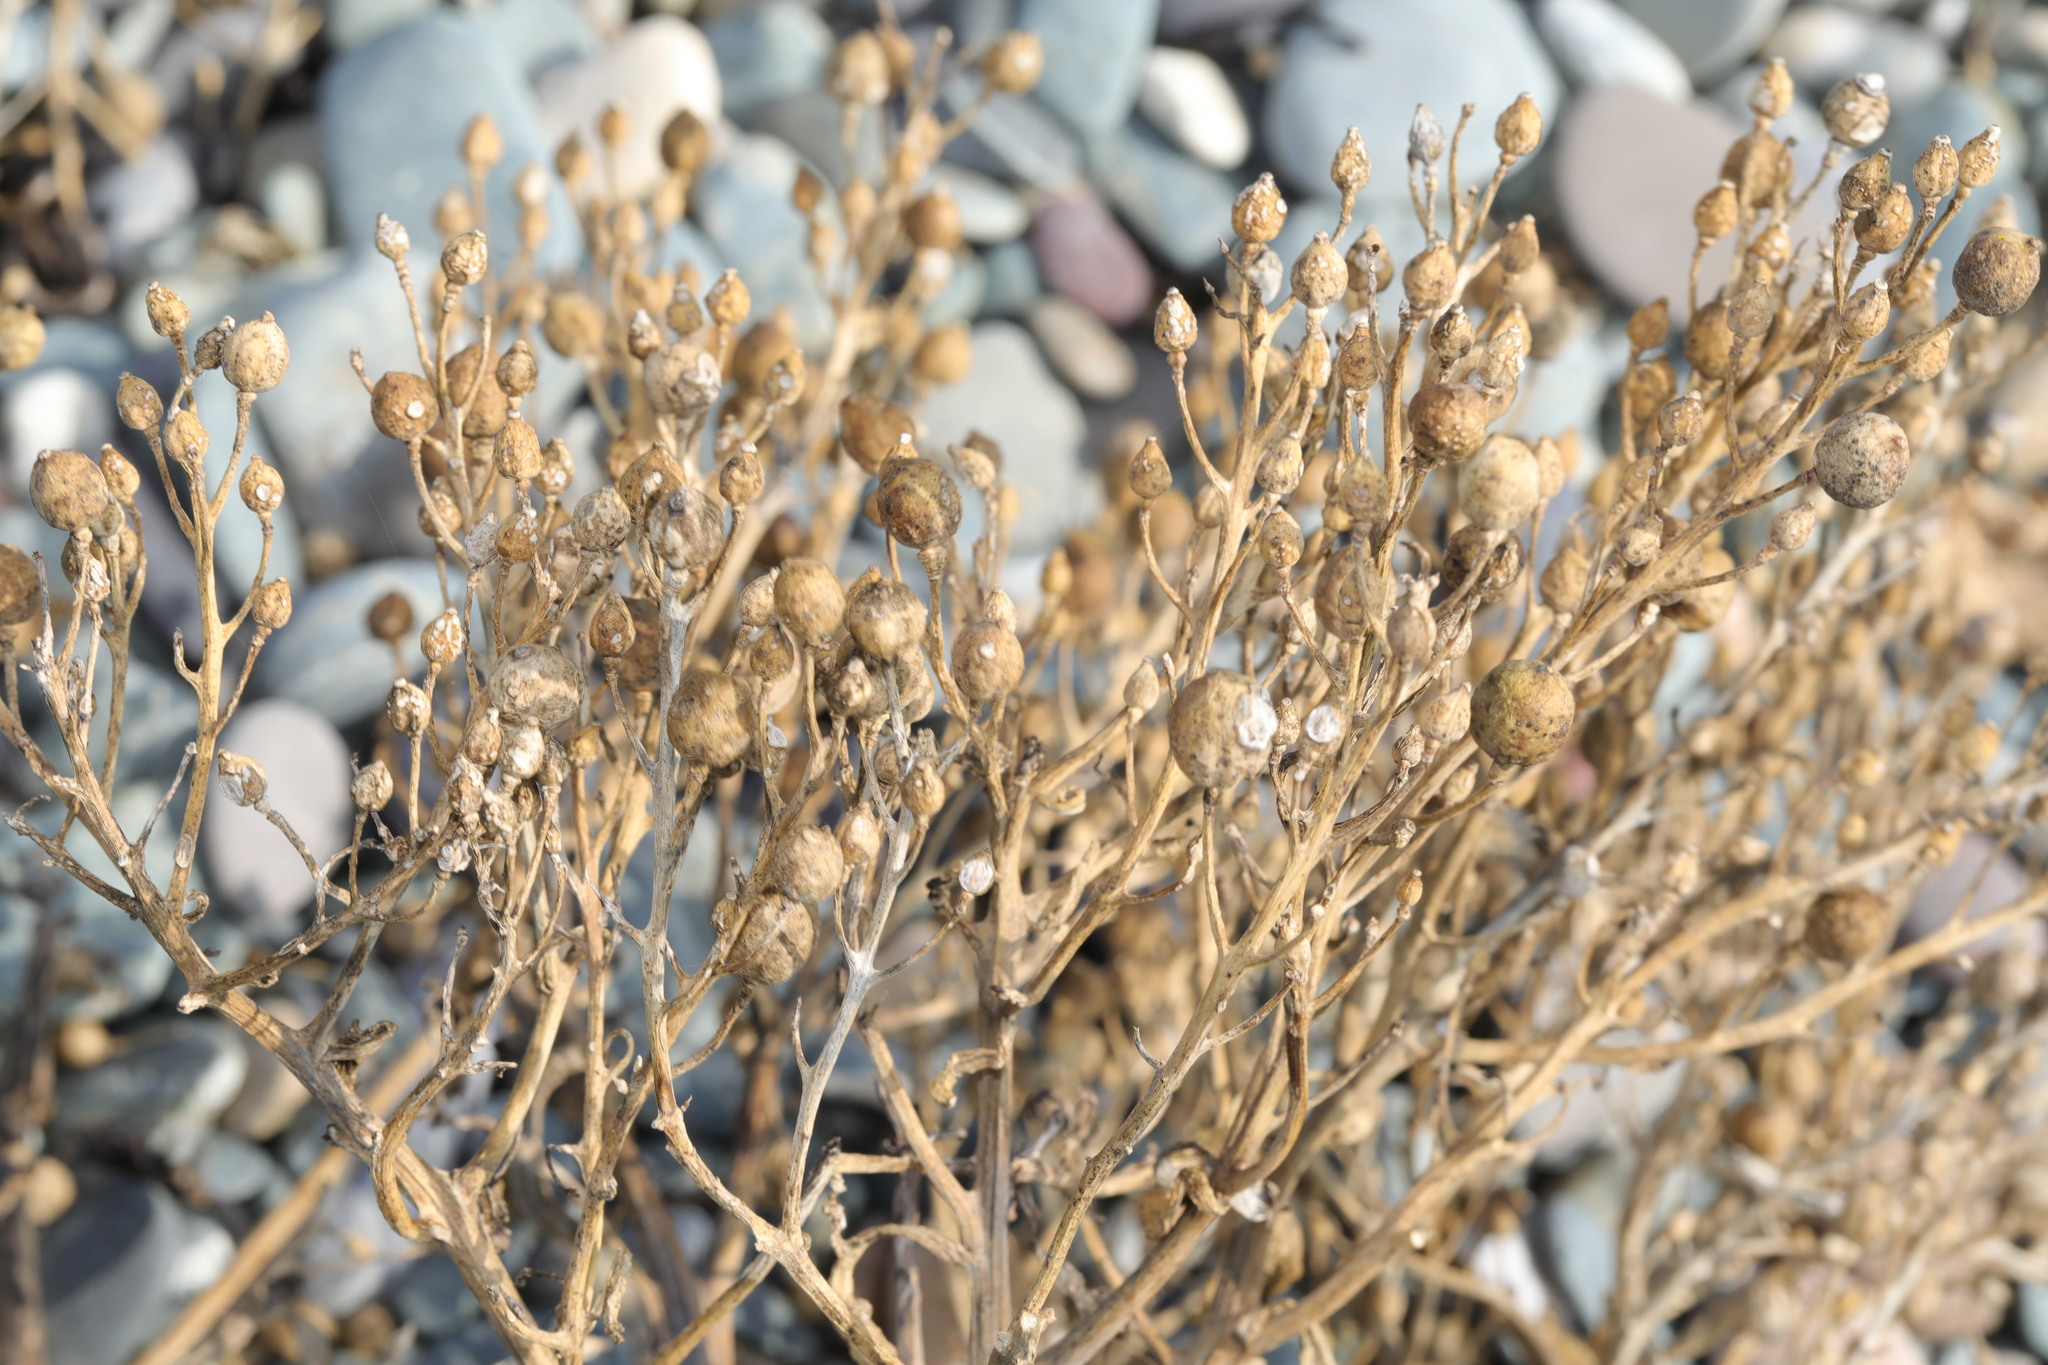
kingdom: Plantae
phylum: Tracheophyta
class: Magnoliopsida
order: Brassicales
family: Brassicaceae
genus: Crambe
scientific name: Crambe maritima
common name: Sea-kale
